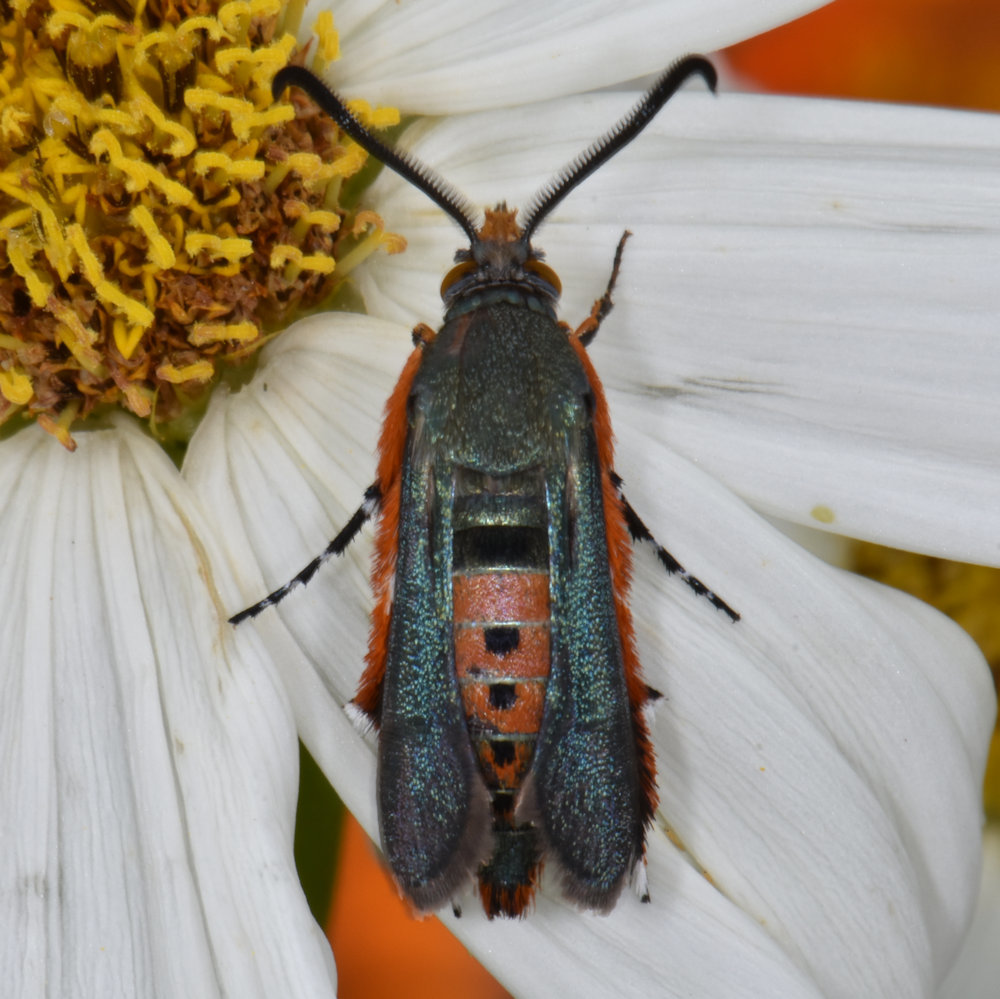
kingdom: Animalia
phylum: Arthropoda
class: Insecta
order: Lepidoptera
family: Sesiidae
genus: Eichlinia
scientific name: Eichlinia cucurbitae
